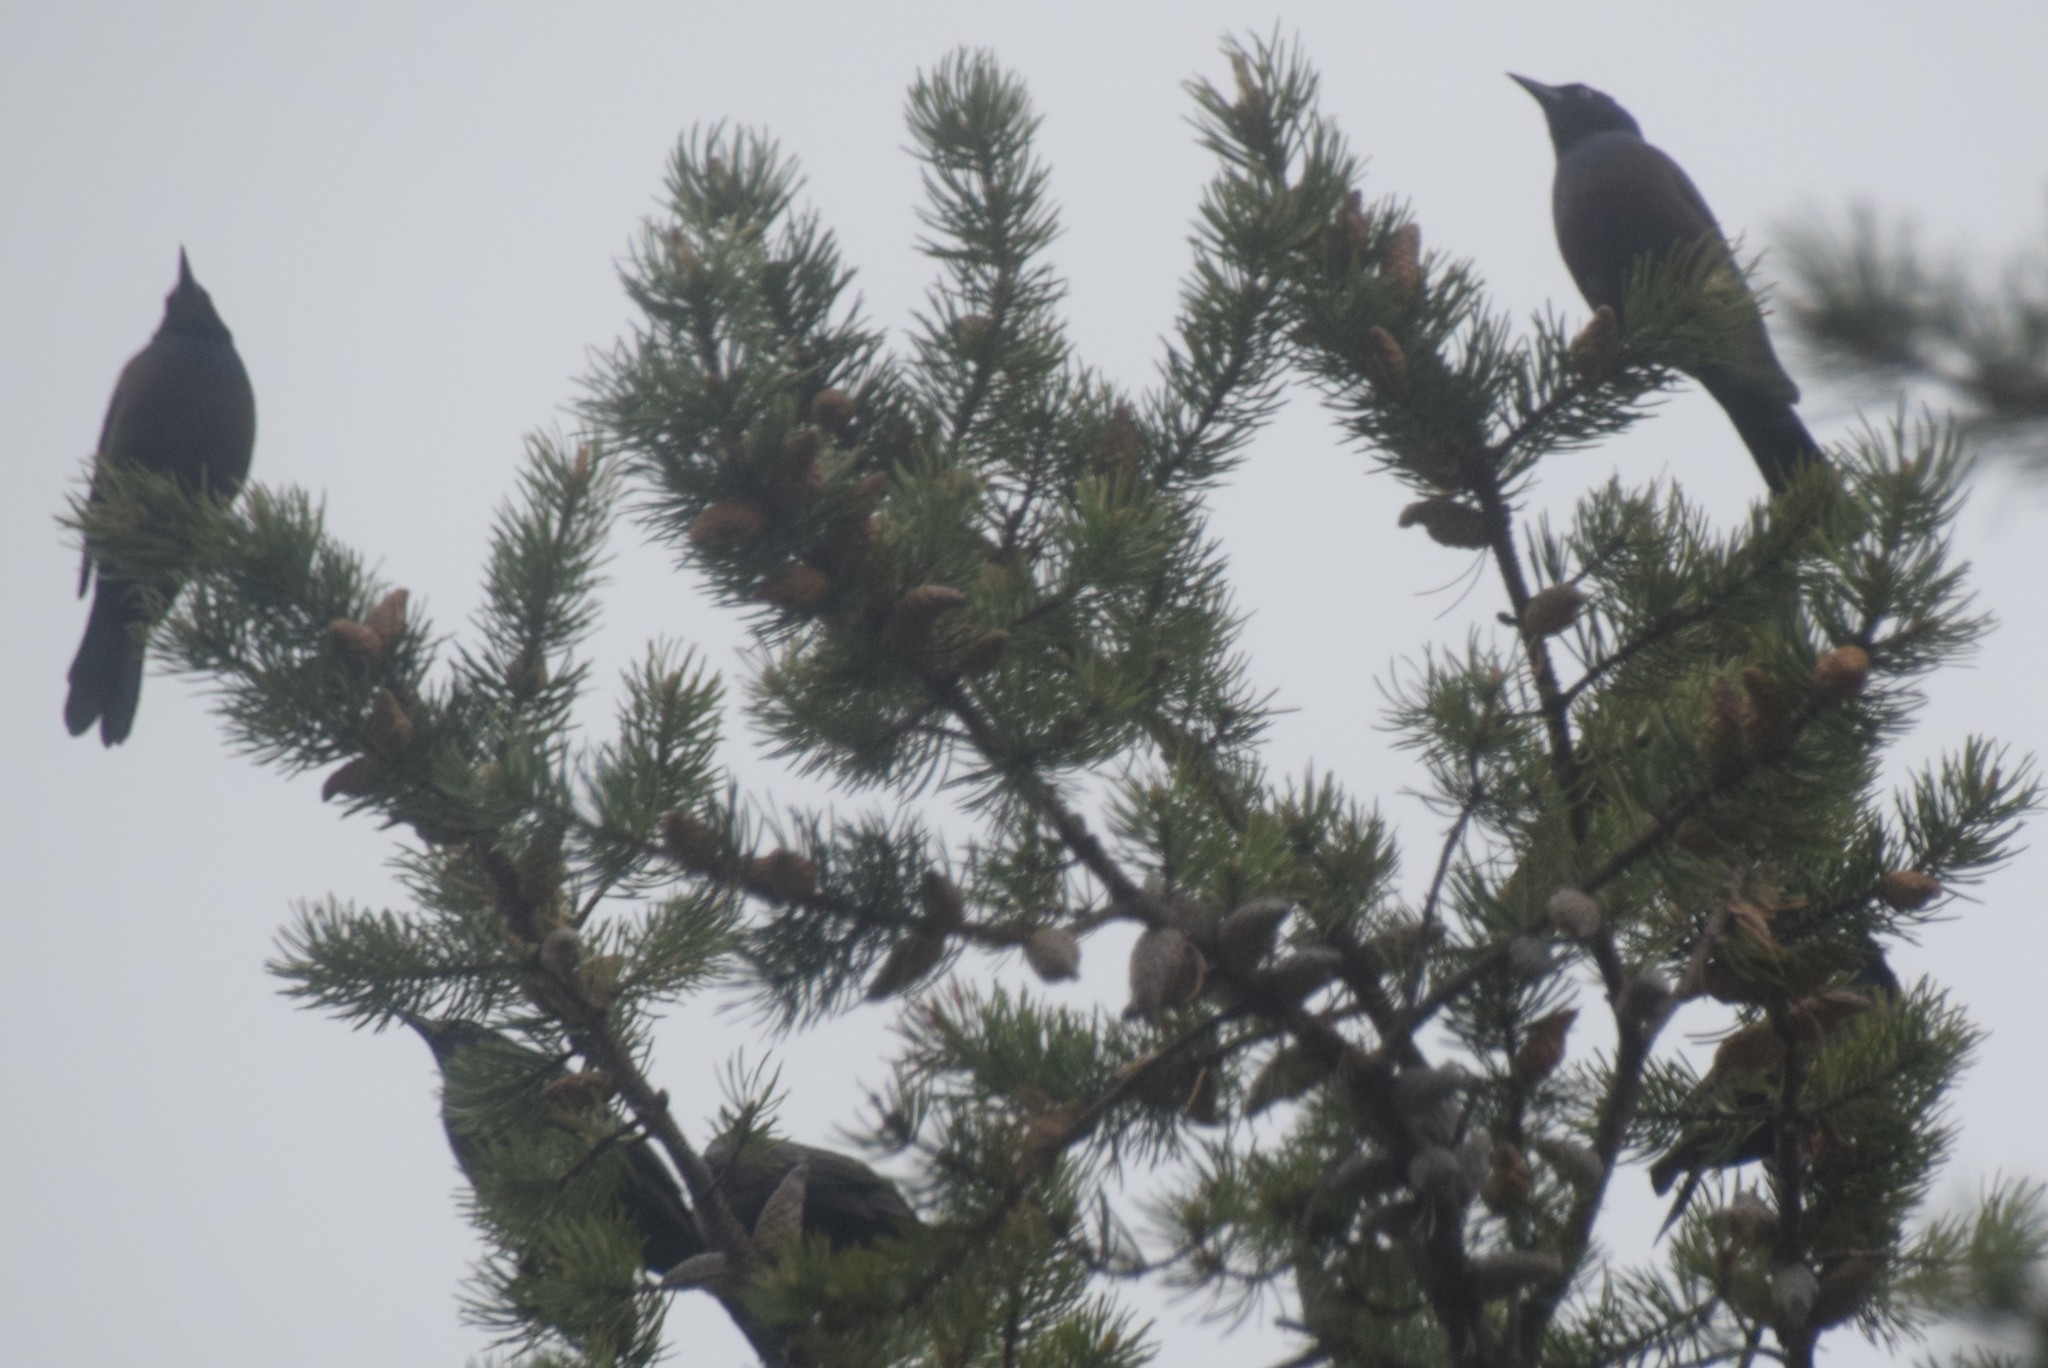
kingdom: Animalia
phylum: Chordata
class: Aves
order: Passeriformes
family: Icteridae
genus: Quiscalus
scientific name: Quiscalus quiscula
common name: Common grackle
